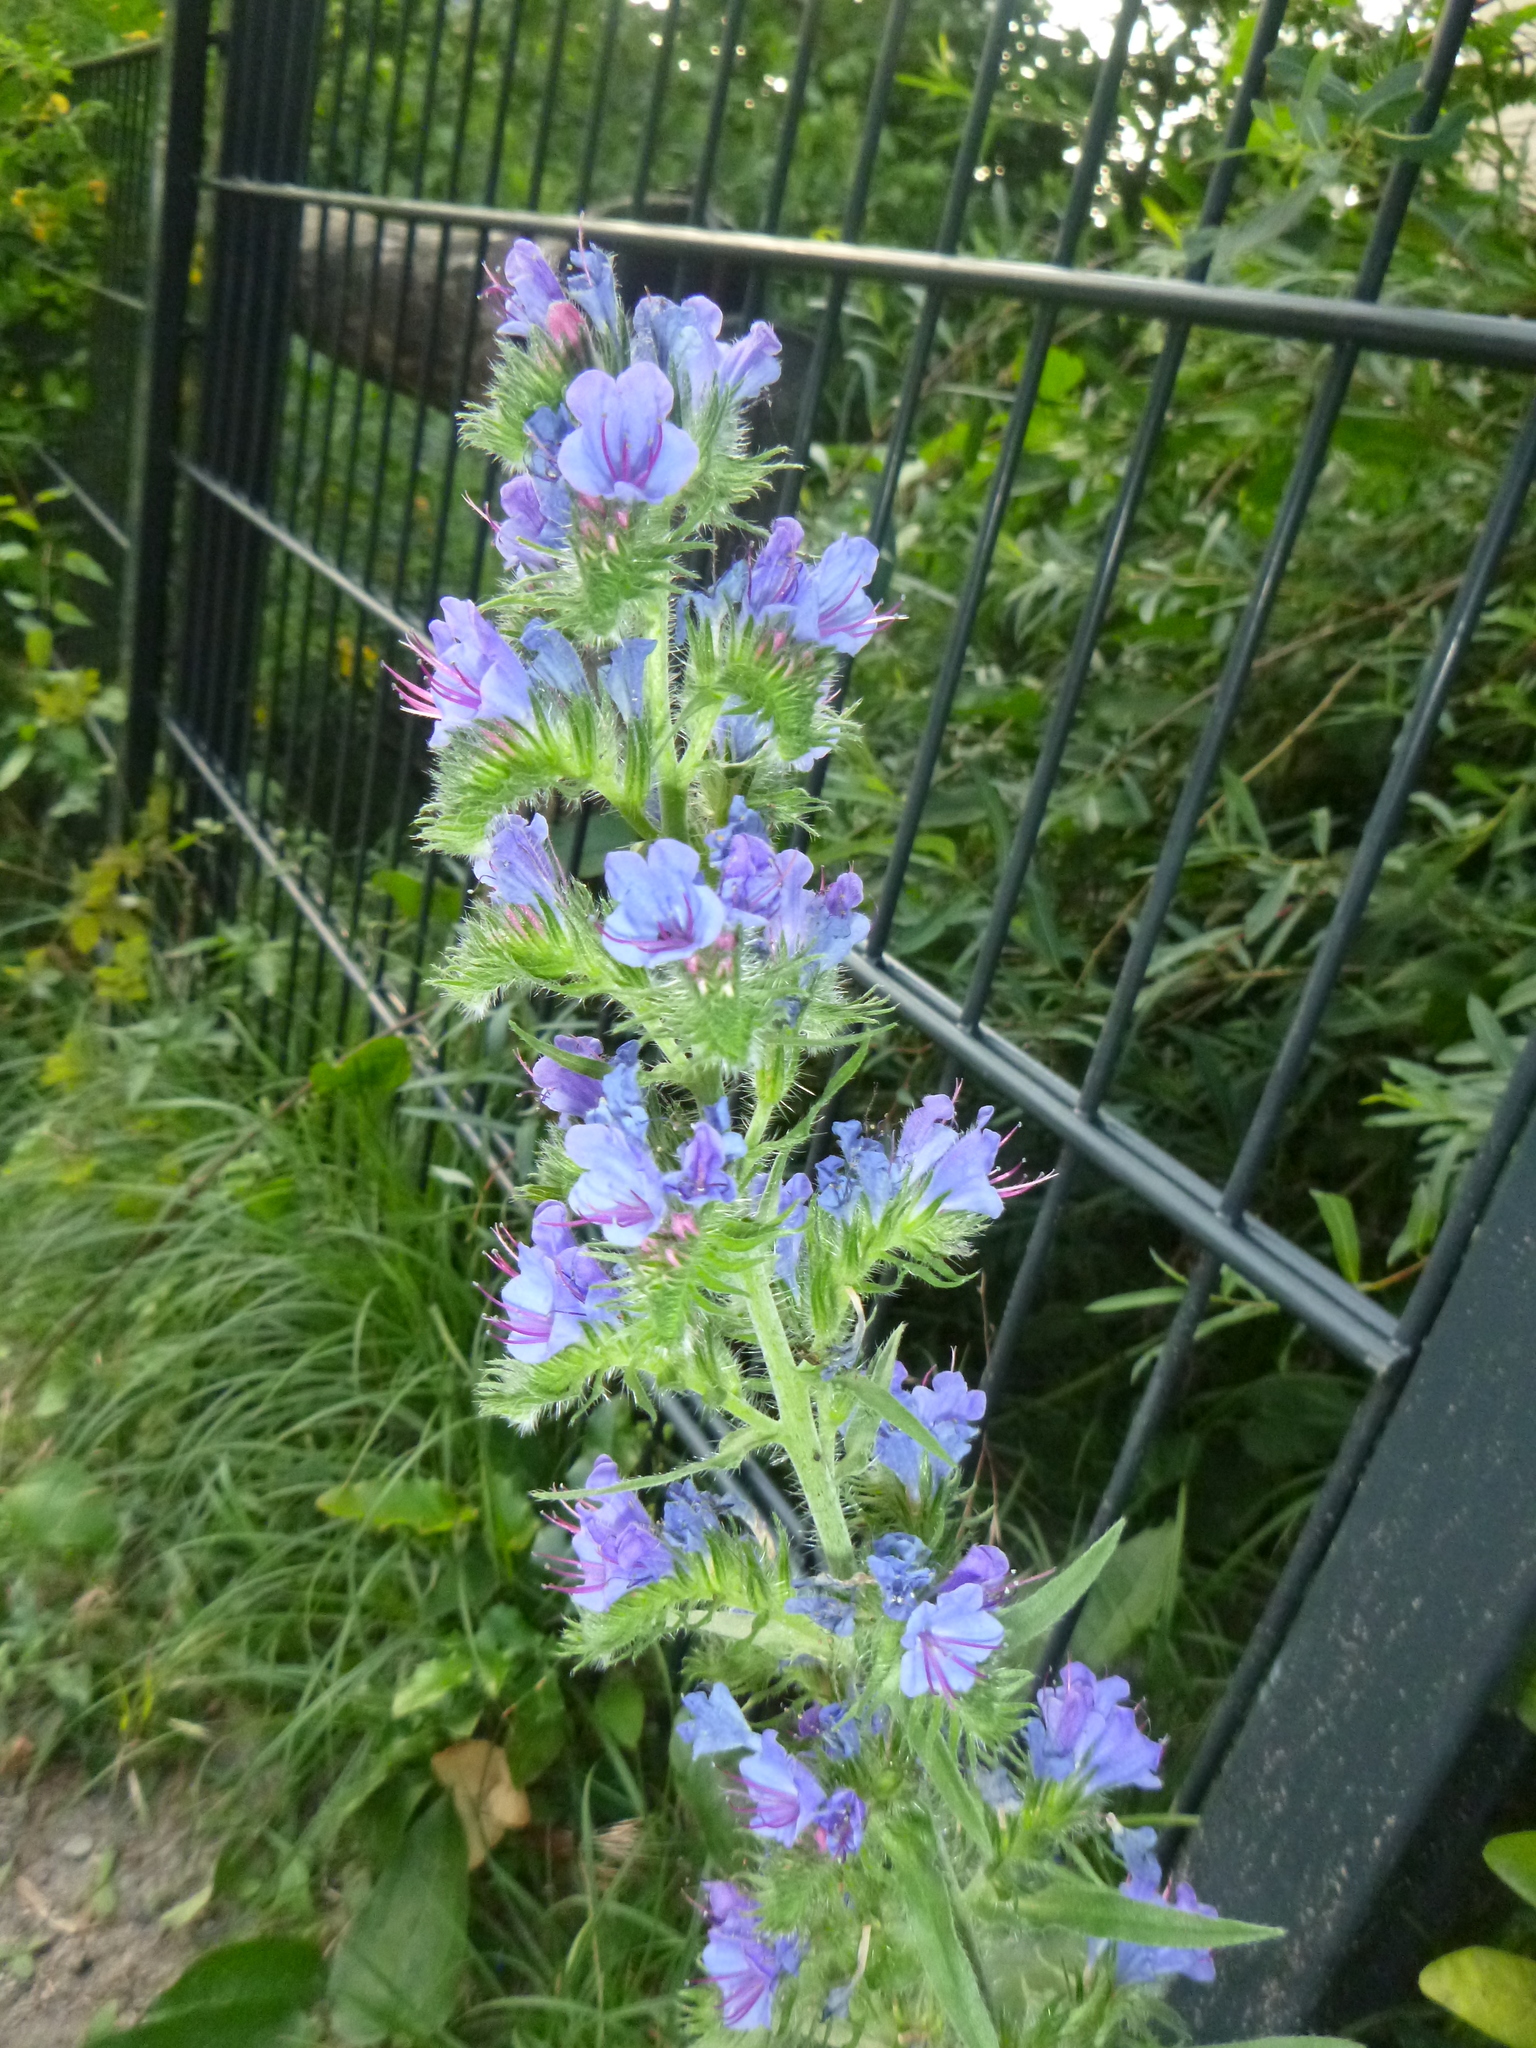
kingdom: Plantae
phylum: Tracheophyta
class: Magnoliopsida
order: Boraginales
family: Boraginaceae
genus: Echium
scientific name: Echium vulgare
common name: Common viper's bugloss
